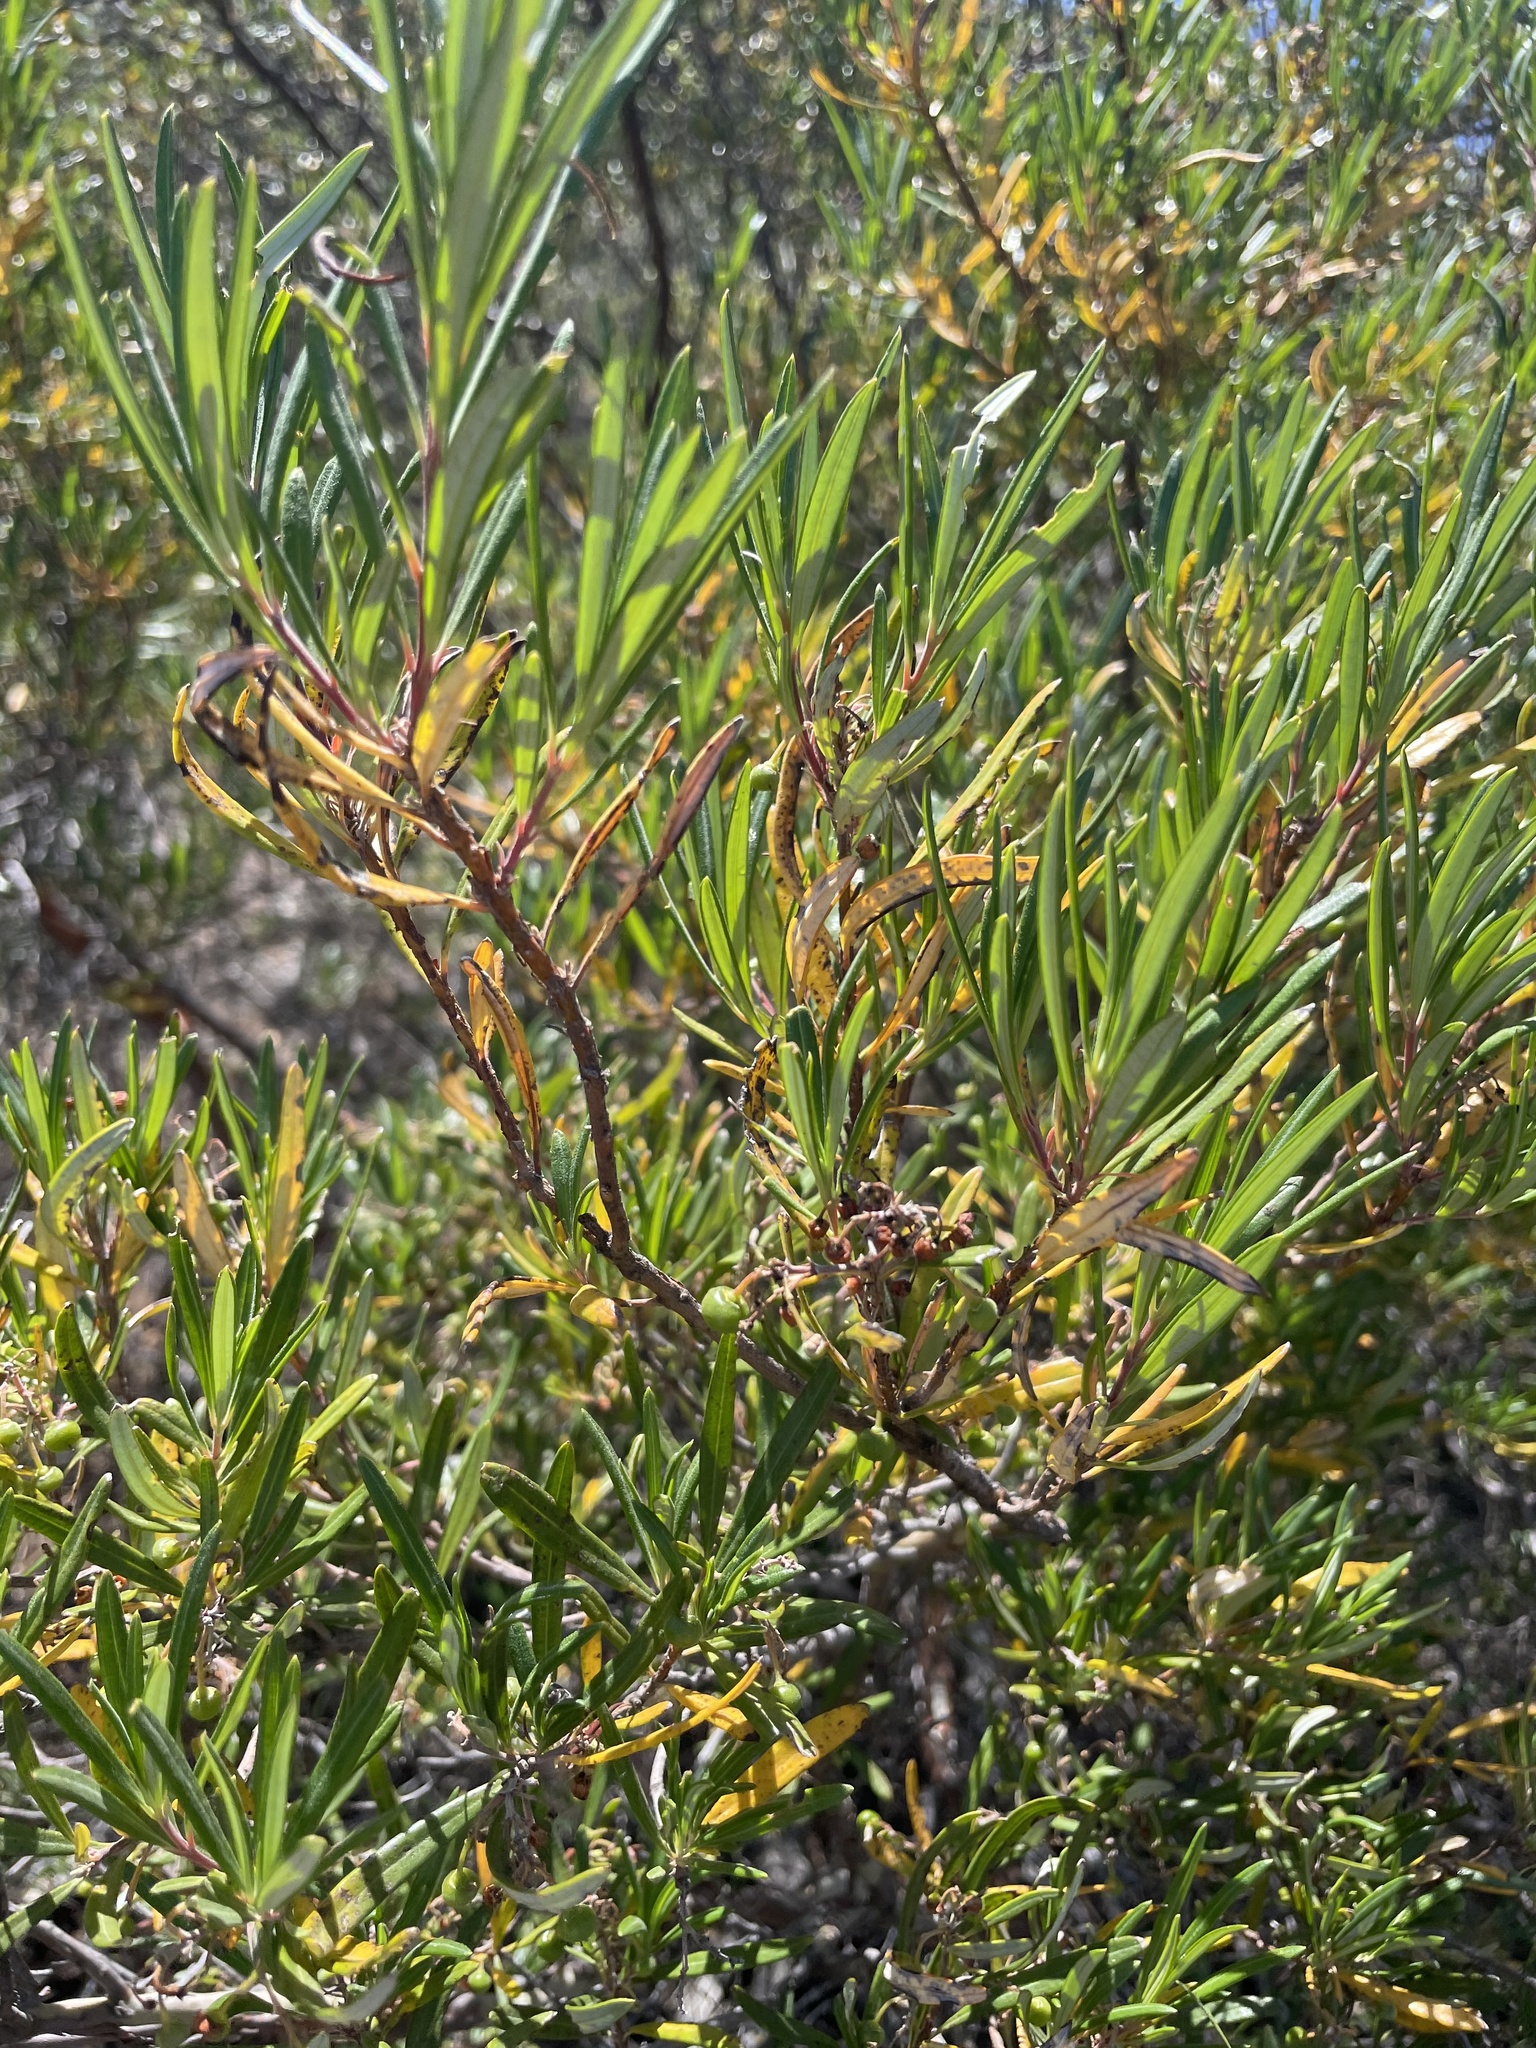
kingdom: Plantae
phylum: Tracheophyta
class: Magnoliopsida
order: Ericales
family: Ericaceae
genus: Ornithostaphylos
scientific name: Ornithostaphylos oppositifolia
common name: Baja california birdbush
